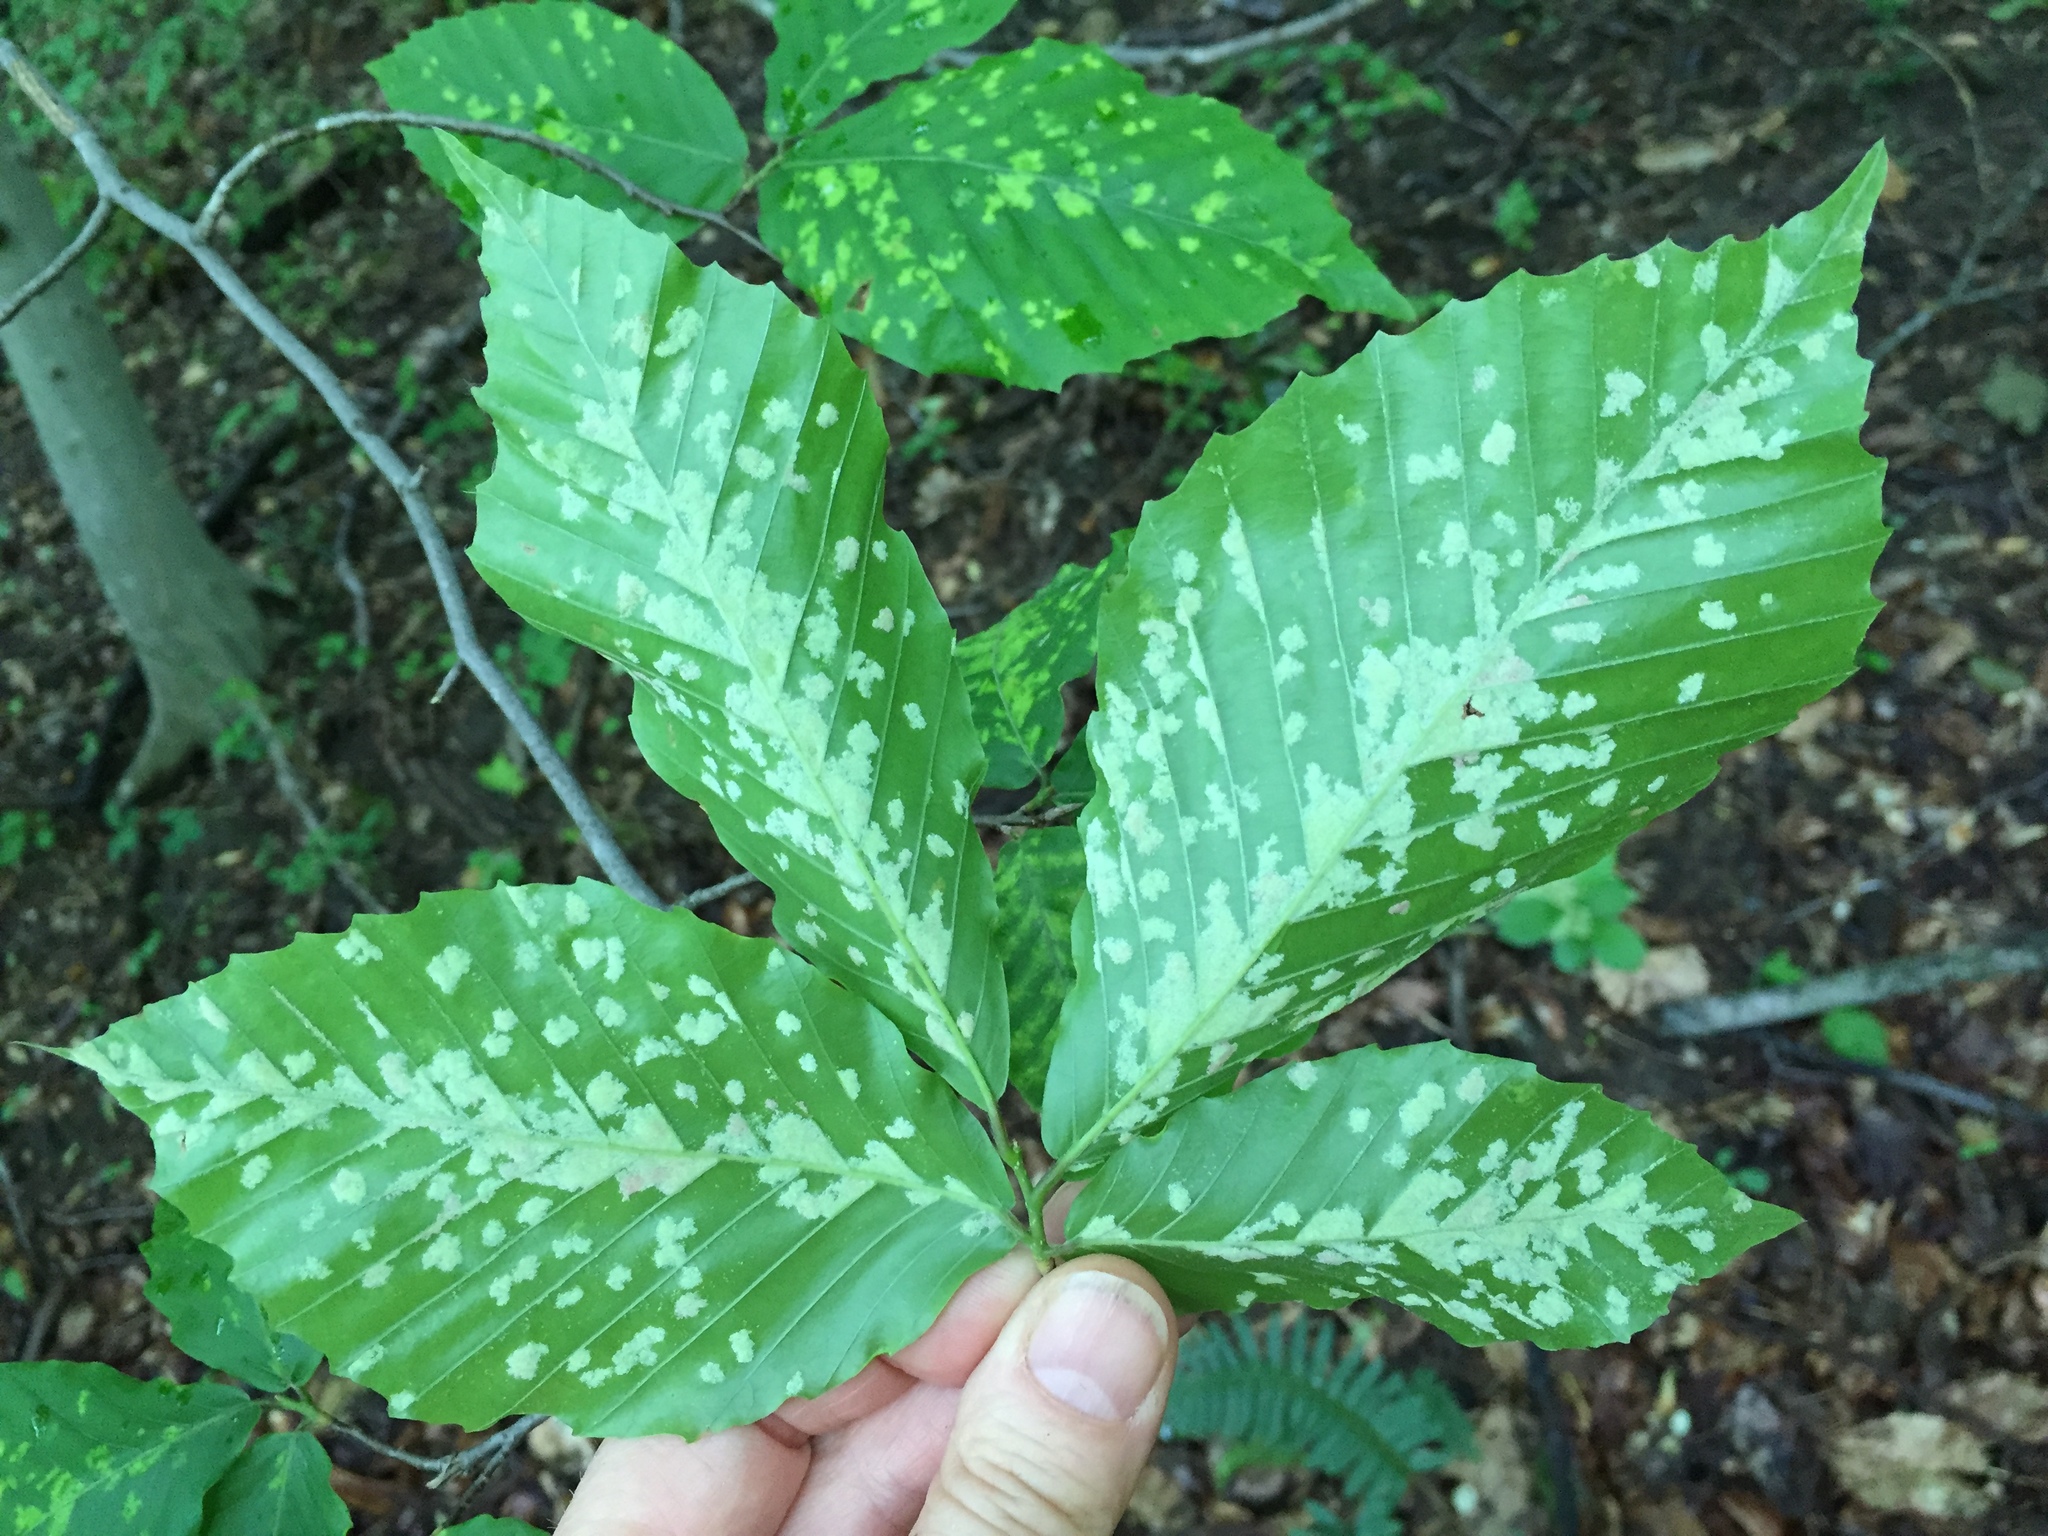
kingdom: Animalia
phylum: Arthropoda
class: Arachnida
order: Trombidiformes
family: Eriophyidae
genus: Acalitus
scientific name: Acalitus
